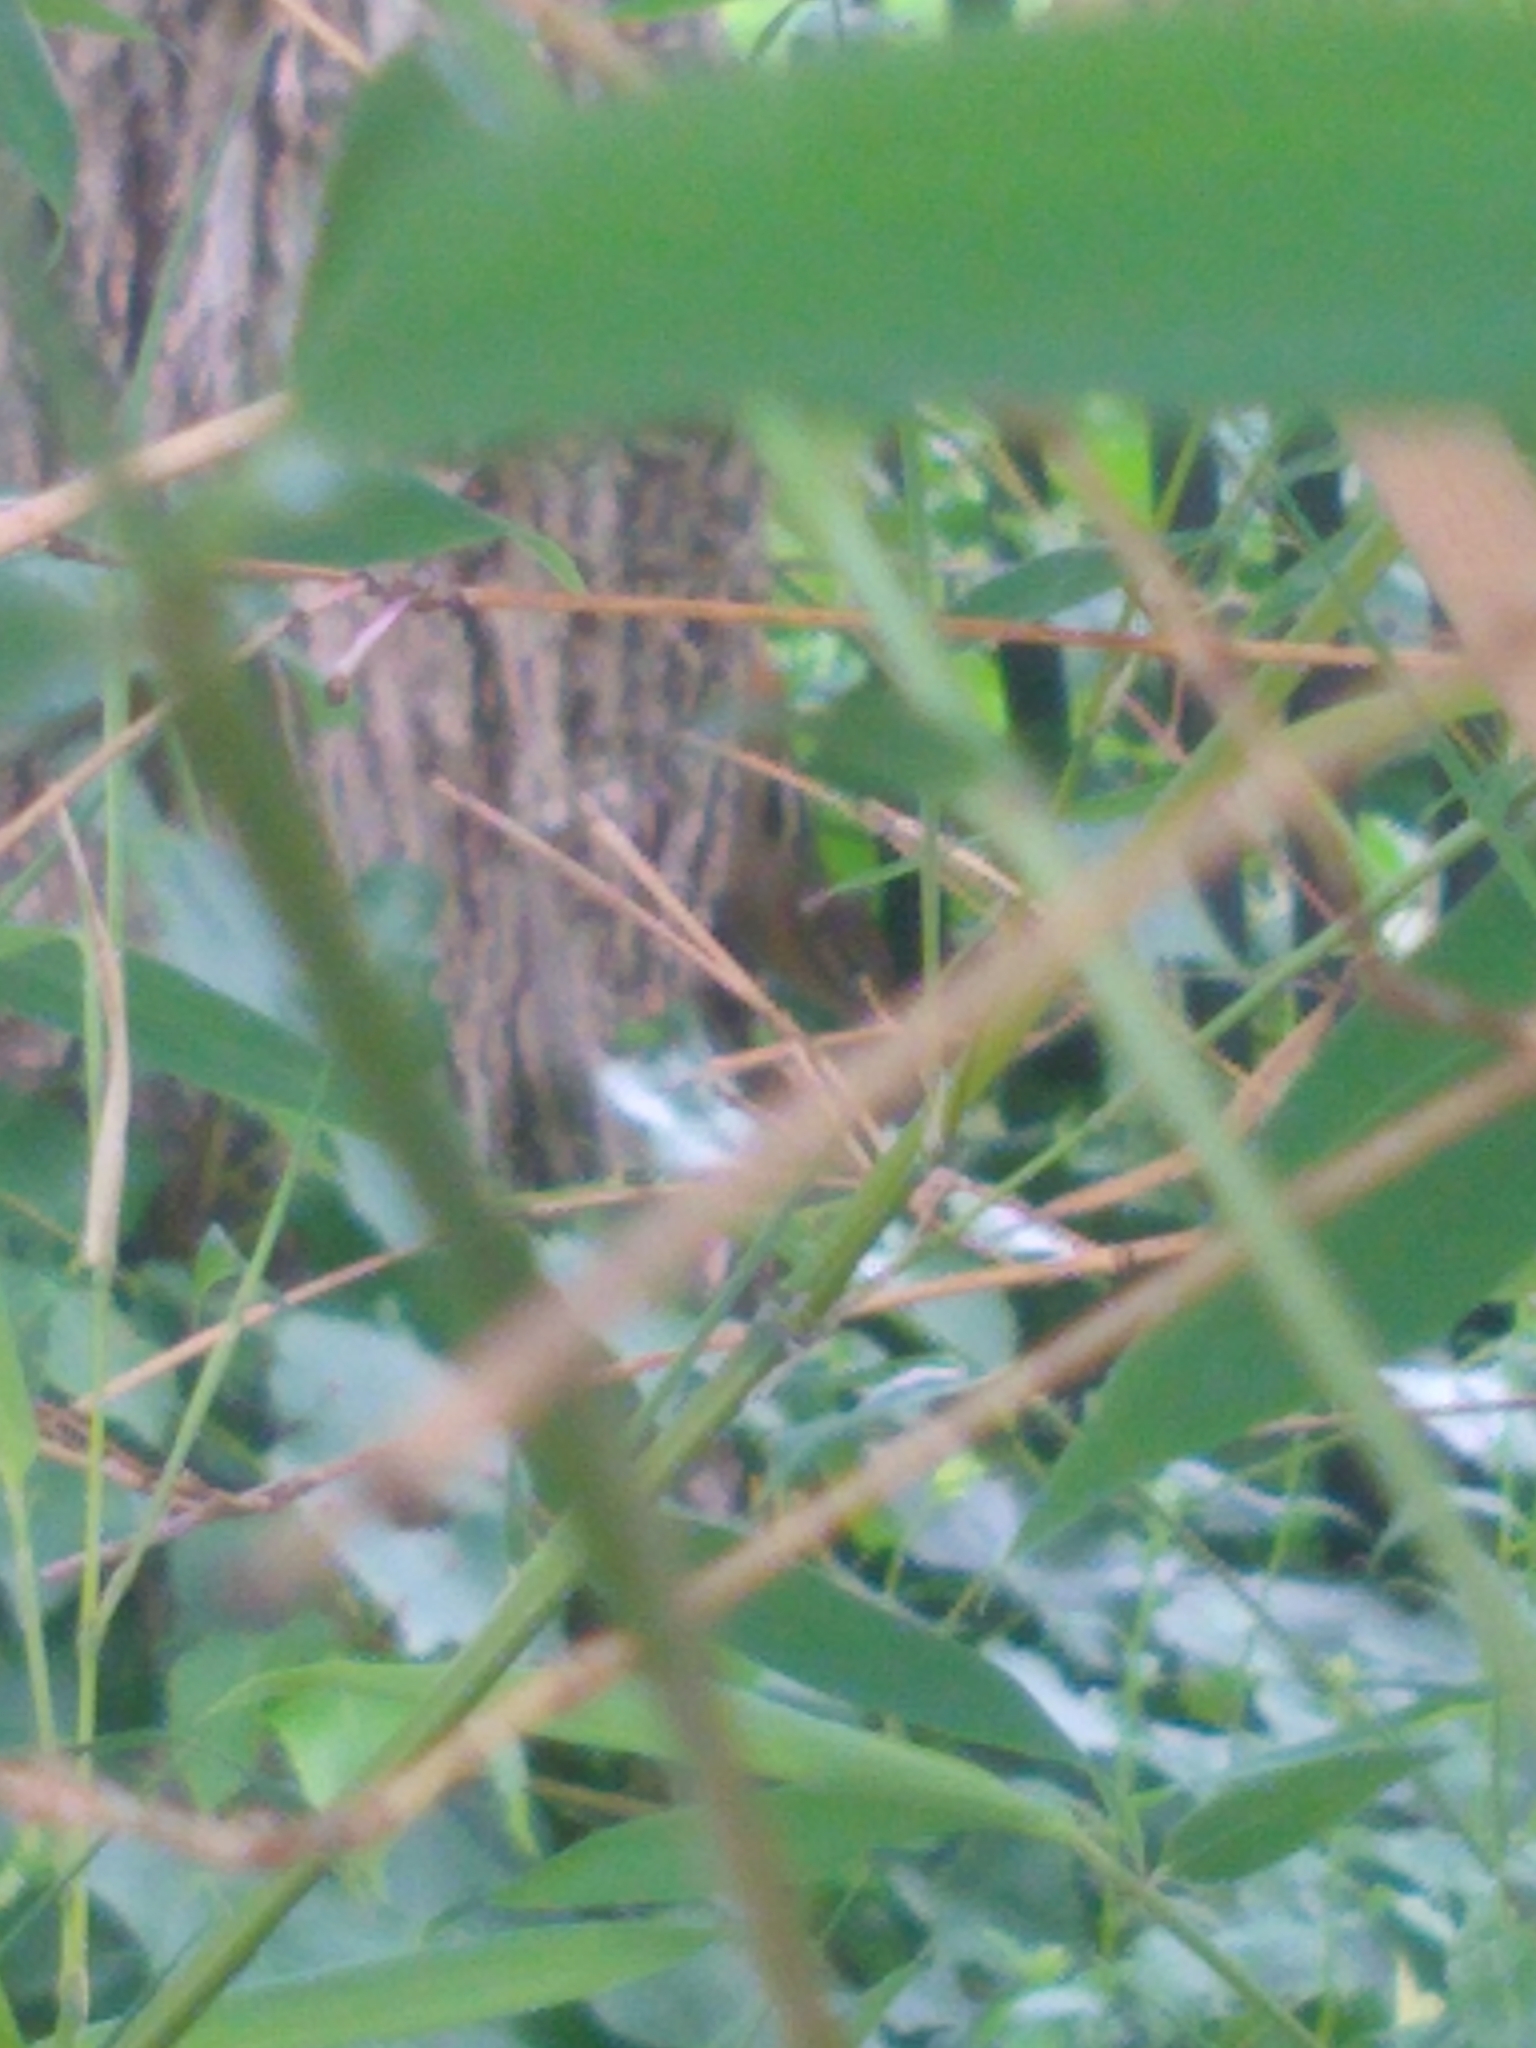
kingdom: Animalia
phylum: Chordata
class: Mammalia
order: Rodentia
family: Sciuridae
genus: Tamias
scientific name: Tamias striatus
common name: Eastern chipmunk
